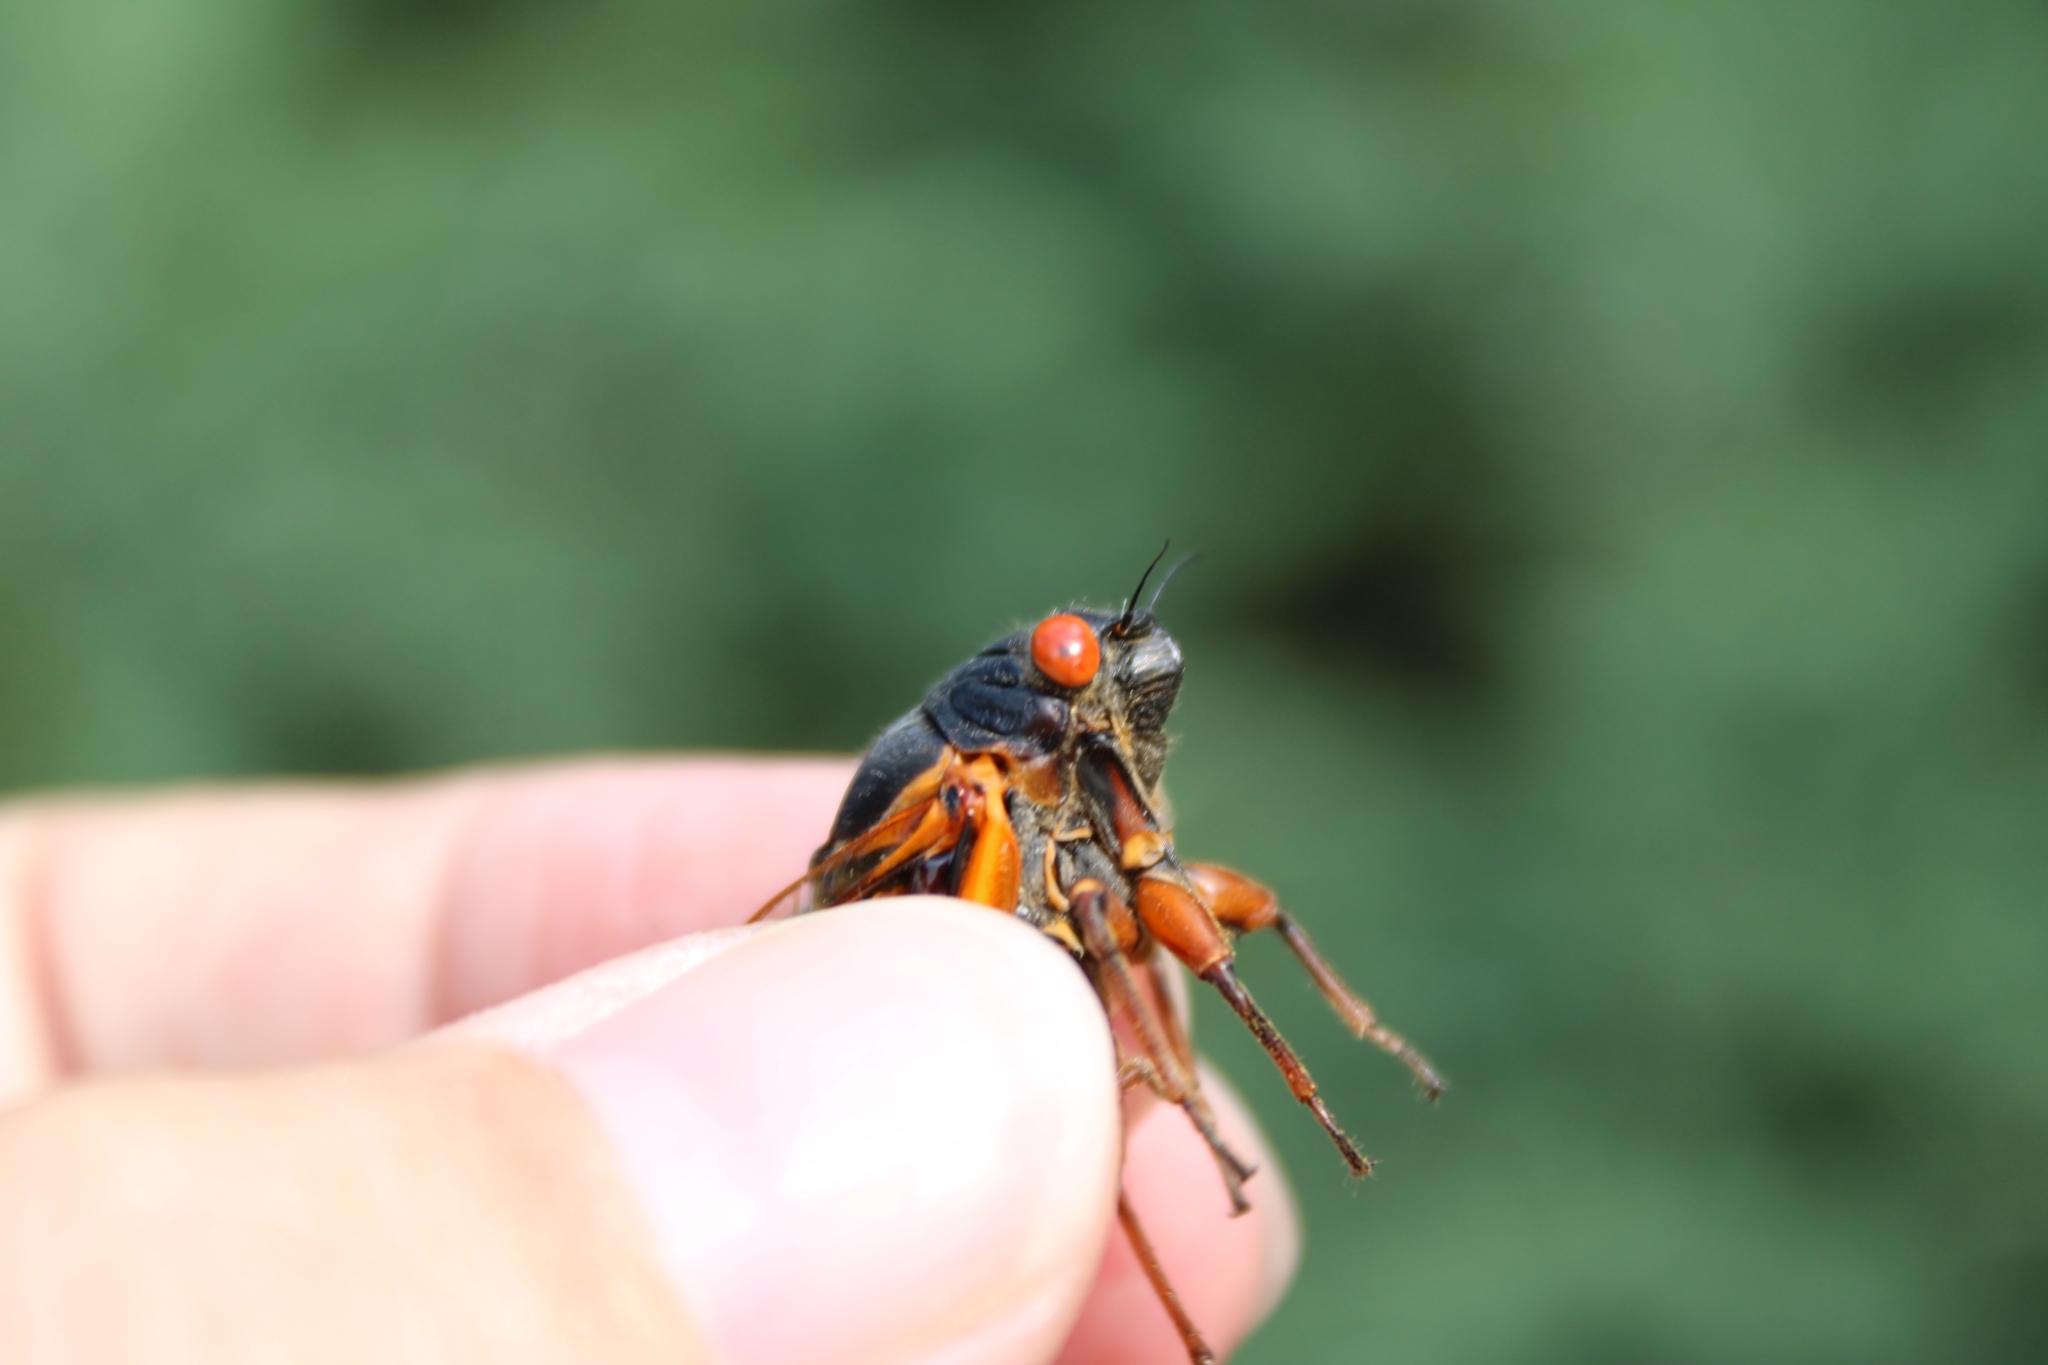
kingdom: Animalia
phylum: Arthropoda
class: Insecta
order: Hemiptera
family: Cicadidae
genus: Magicicada
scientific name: Magicicada septendecim
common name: Periodical cicada
